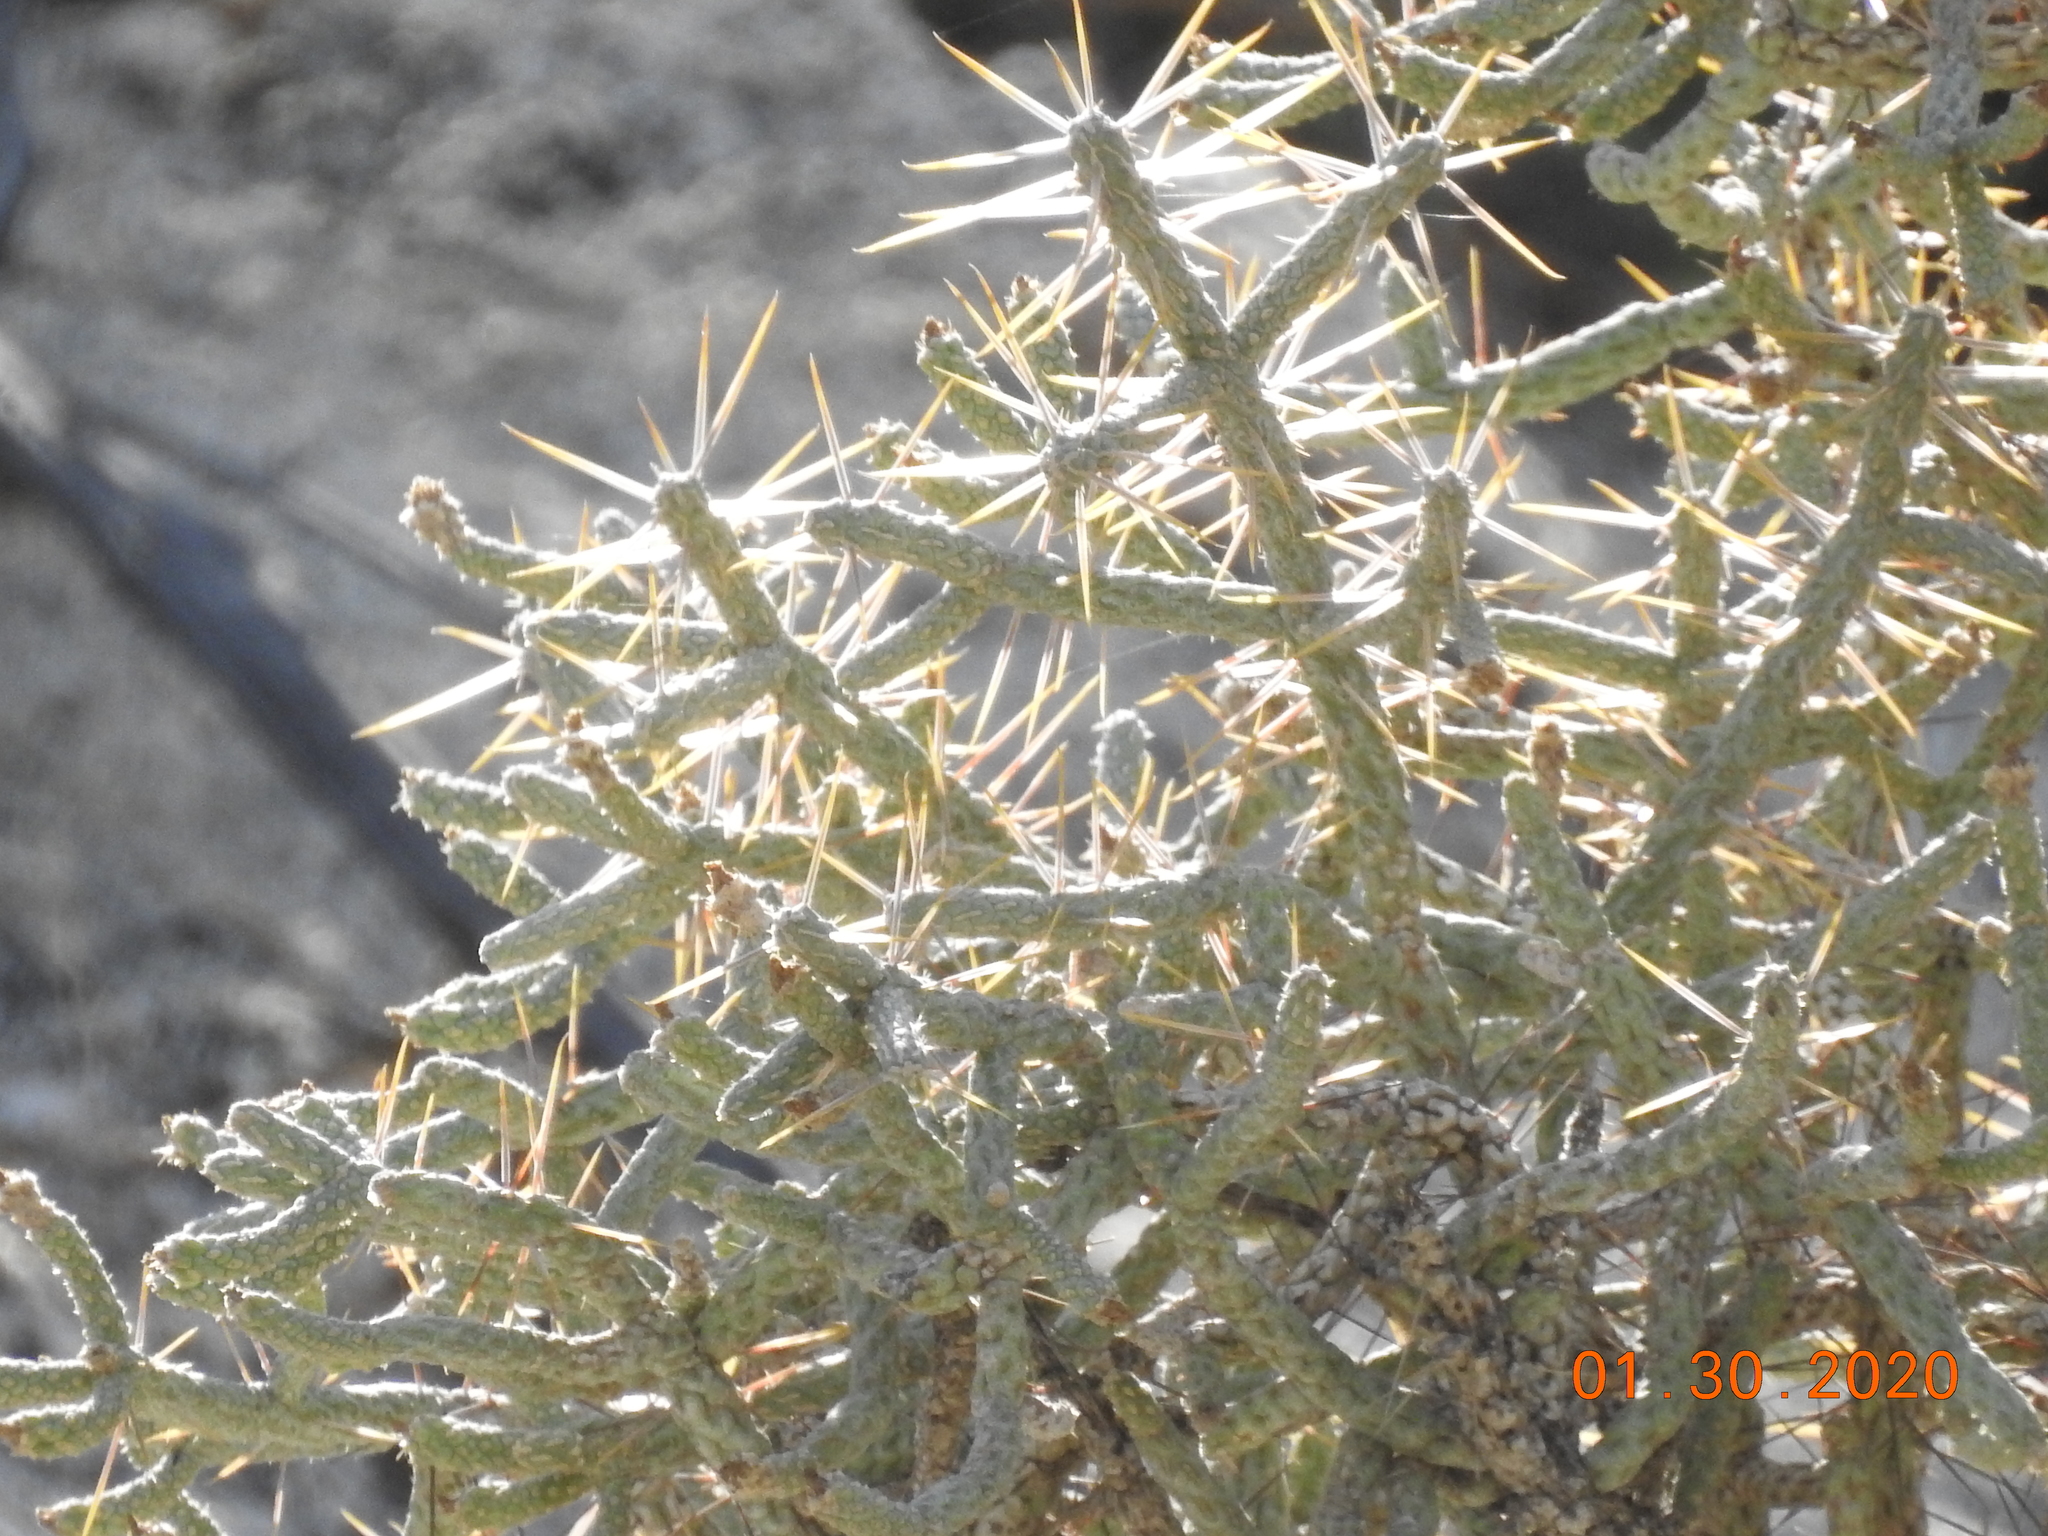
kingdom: Plantae
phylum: Tracheophyta
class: Magnoliopsida
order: Caryophyllales
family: Cactaceae
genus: Cylindropuntia
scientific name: Cylindropuntia ramosissima
